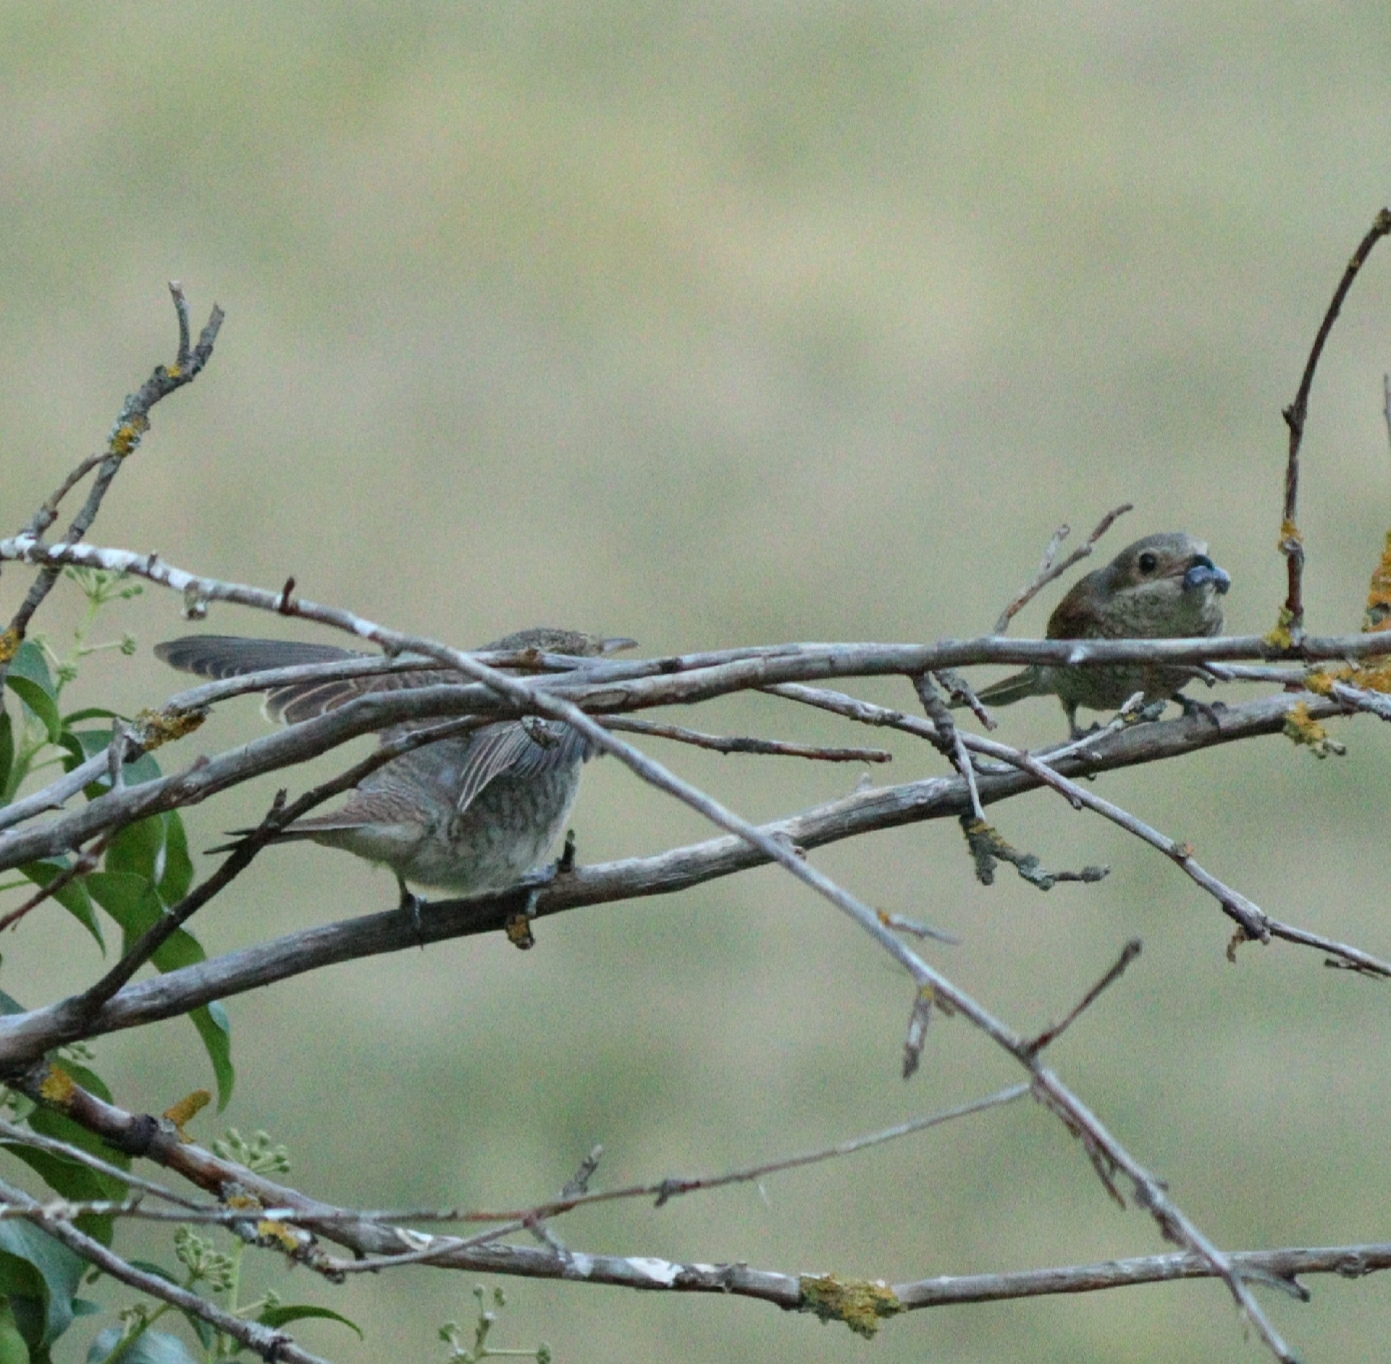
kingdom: Animalia
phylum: Chordata
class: Aves
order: Passeriformes
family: Laniidae
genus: Lanius
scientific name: Lanius collurio
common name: Red-backed shrike
